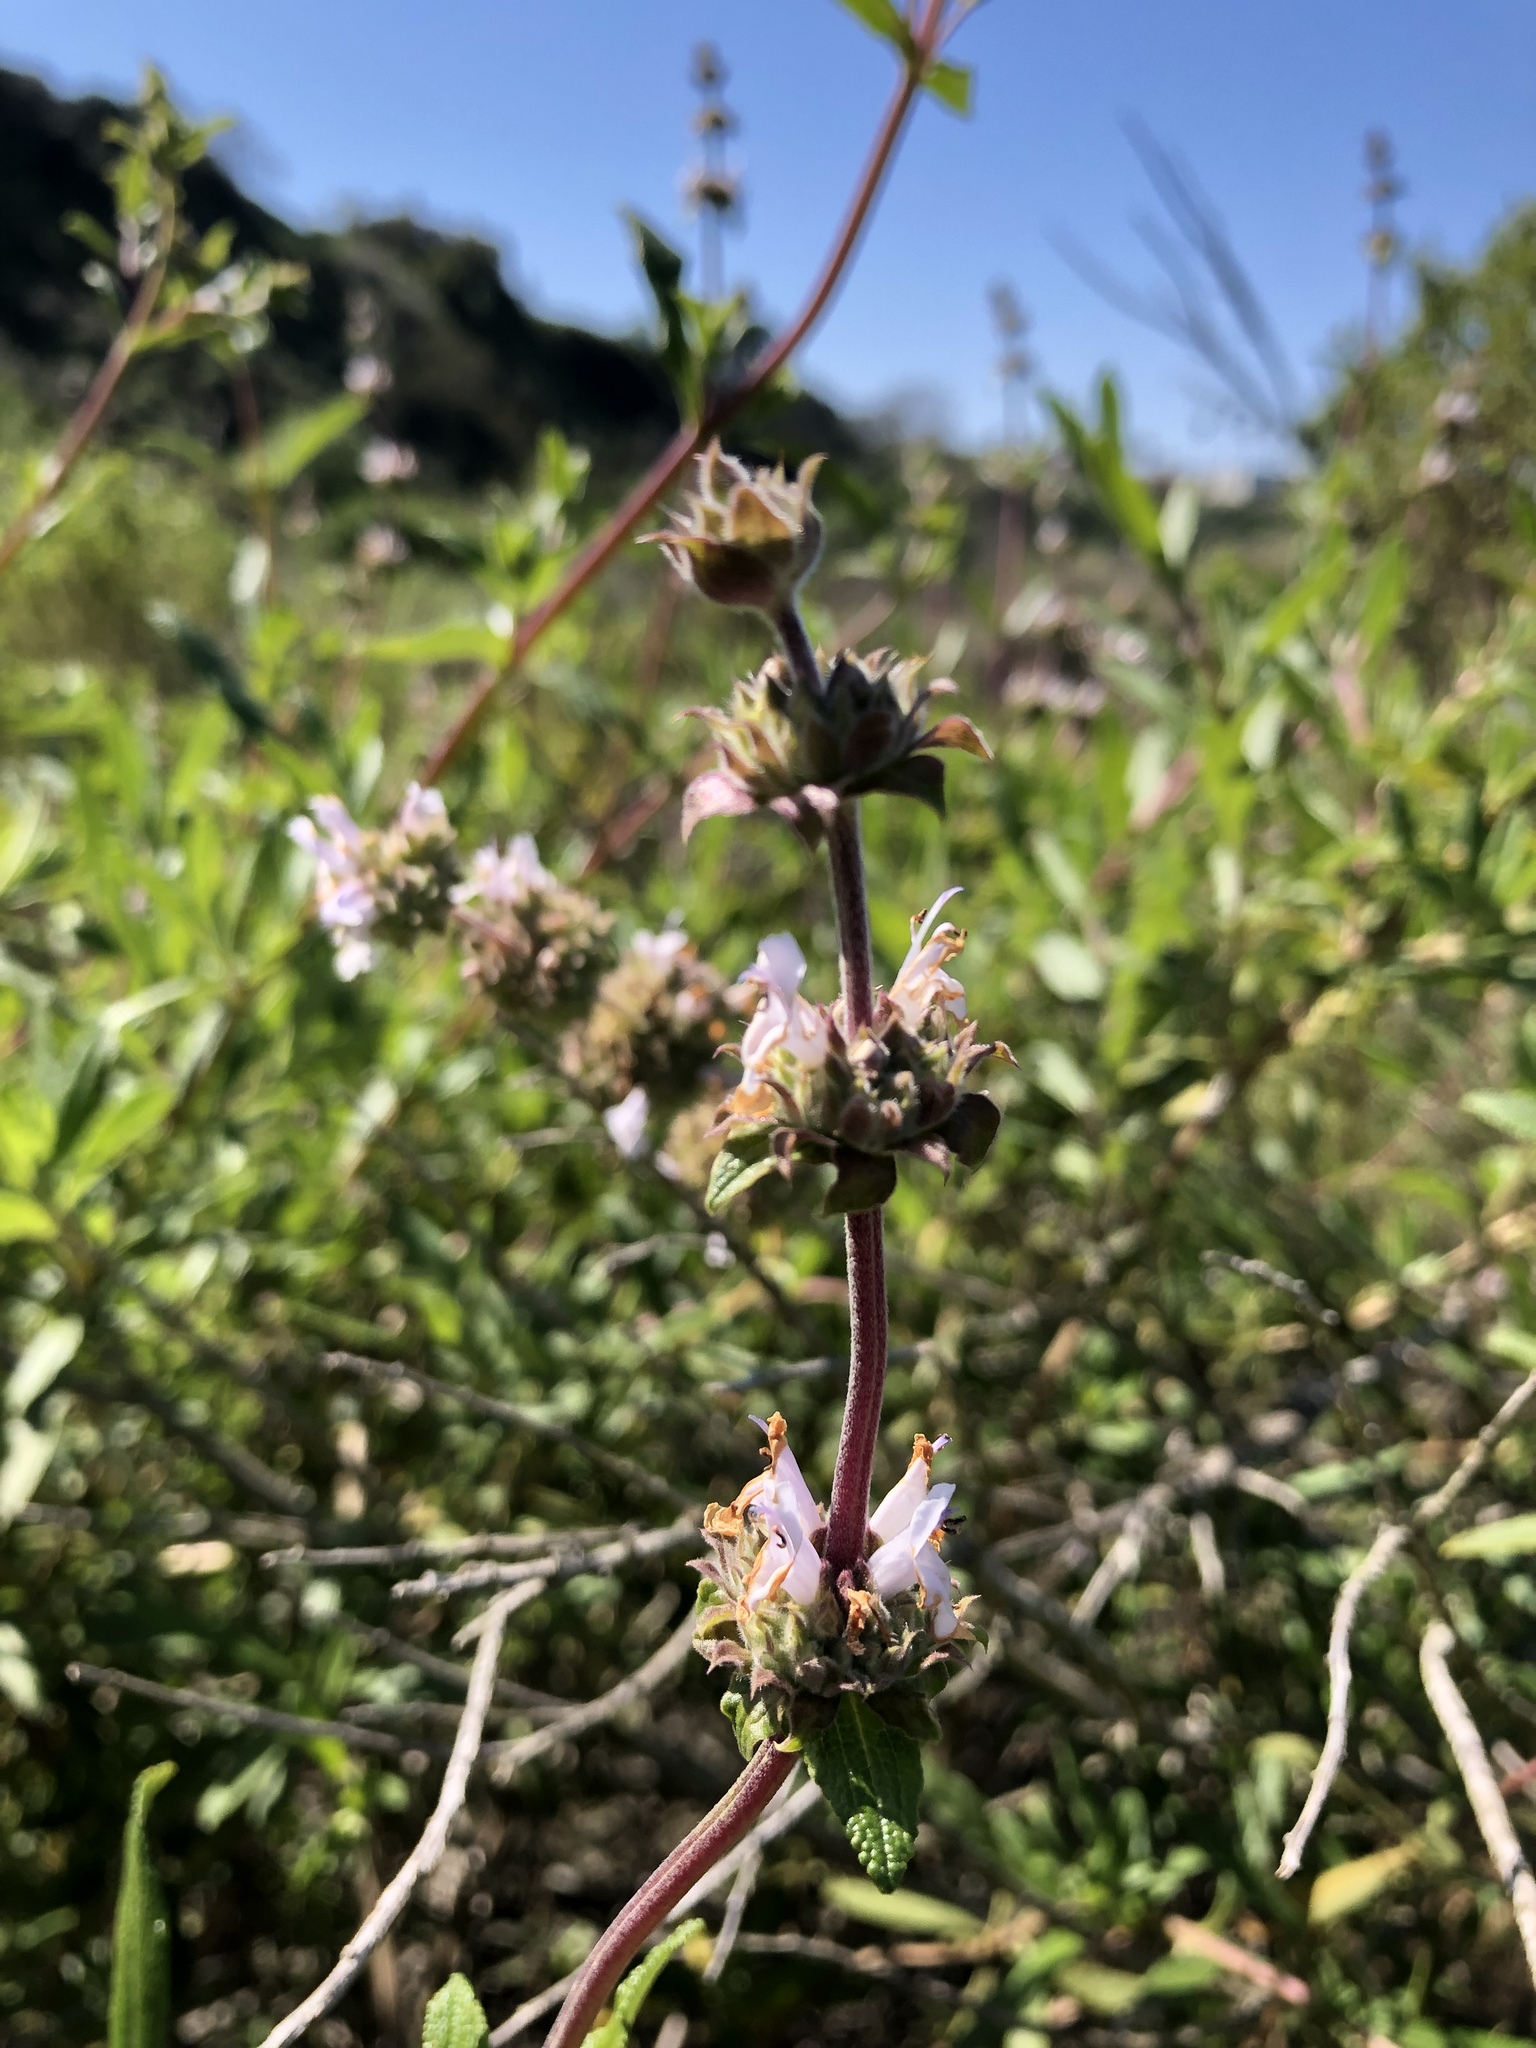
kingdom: Plantae
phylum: Tracheophyta
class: Magnoliopsida
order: Lamiales
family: Lamiaceae
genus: Salvia
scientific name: Salvia mellifera
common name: Black sage
